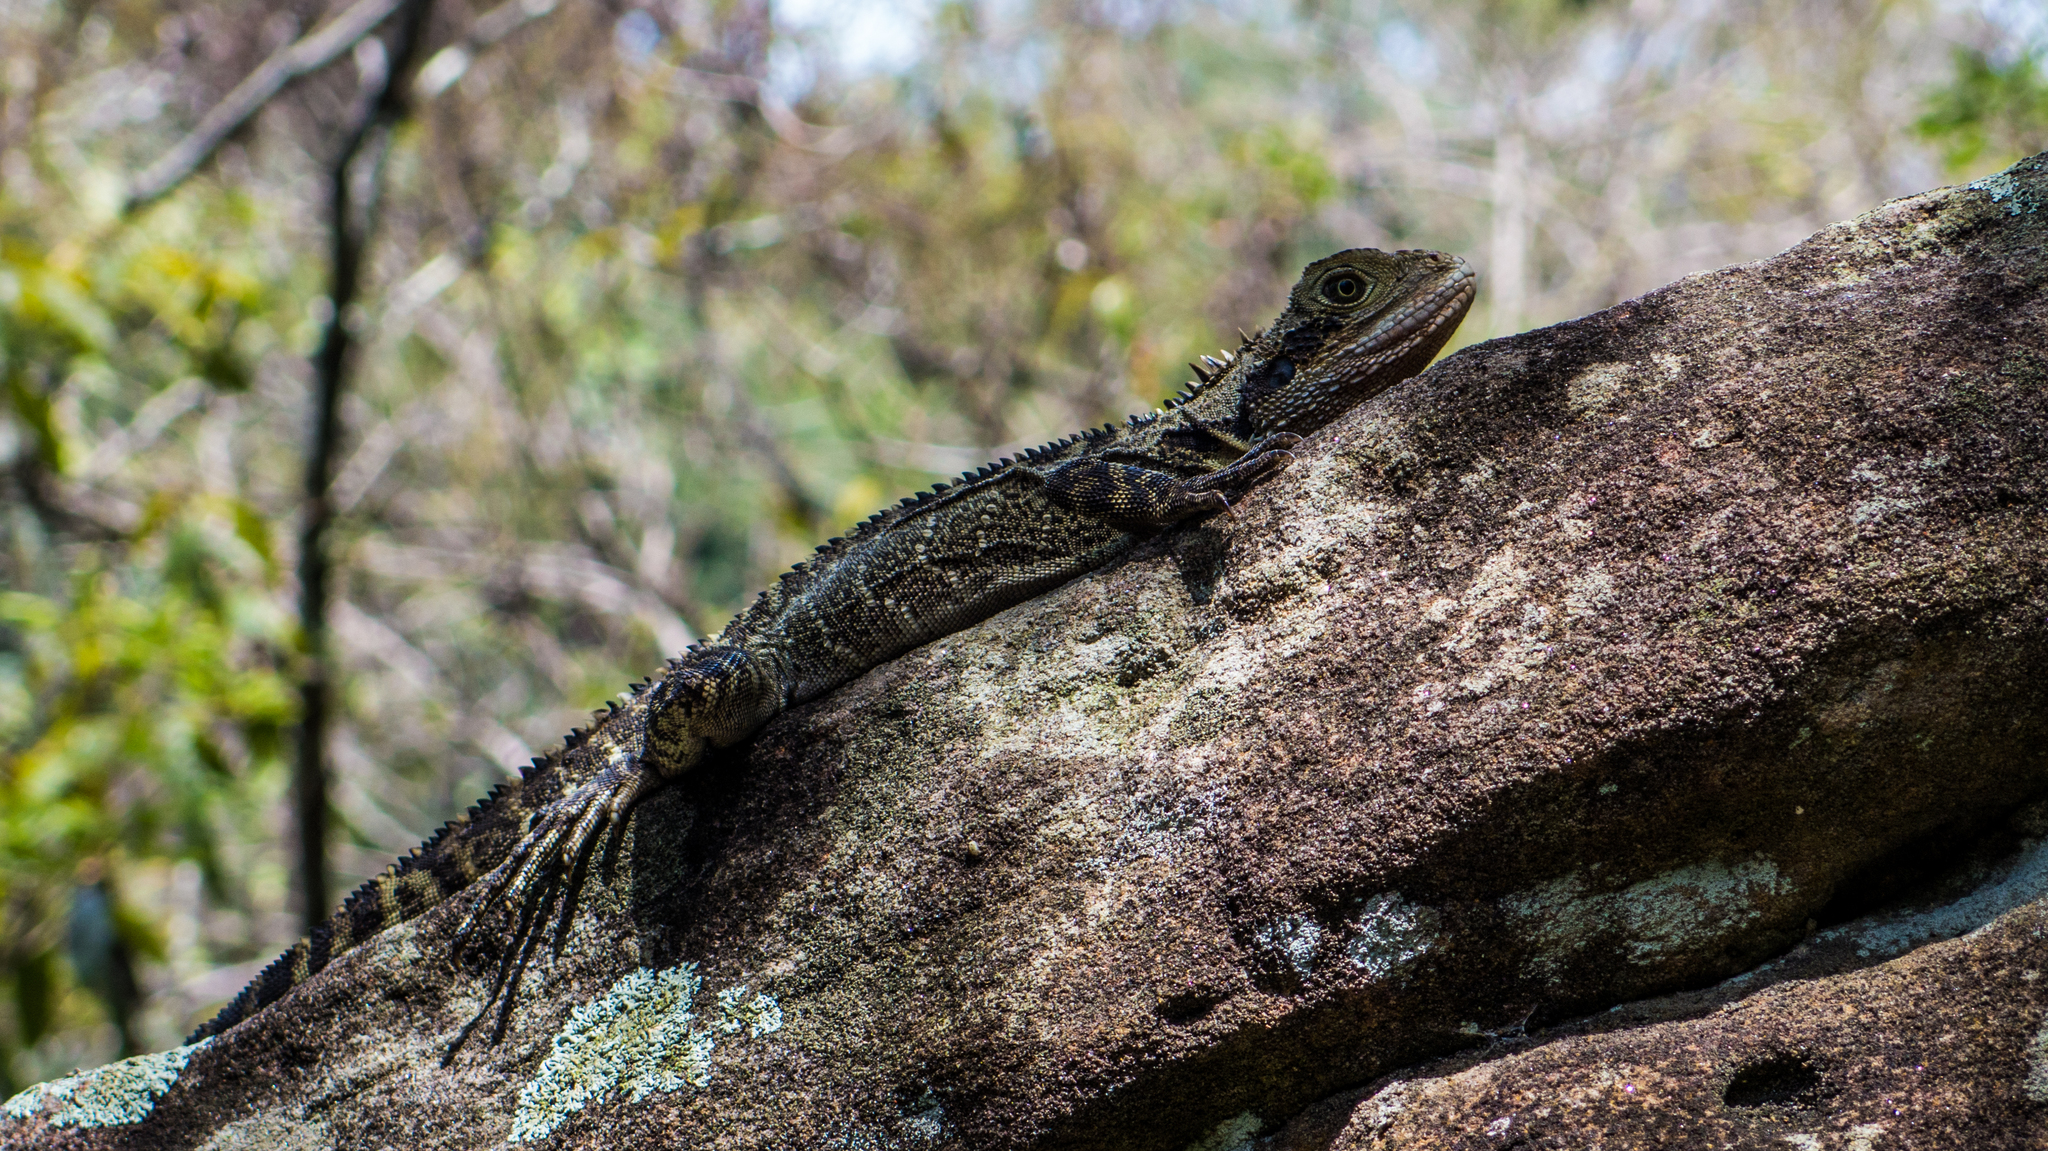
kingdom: Animalia
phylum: Chordata
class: Squamata
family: Agamidae
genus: Intellagama
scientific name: Intellagama lesueurii
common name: Eastern water dragon
